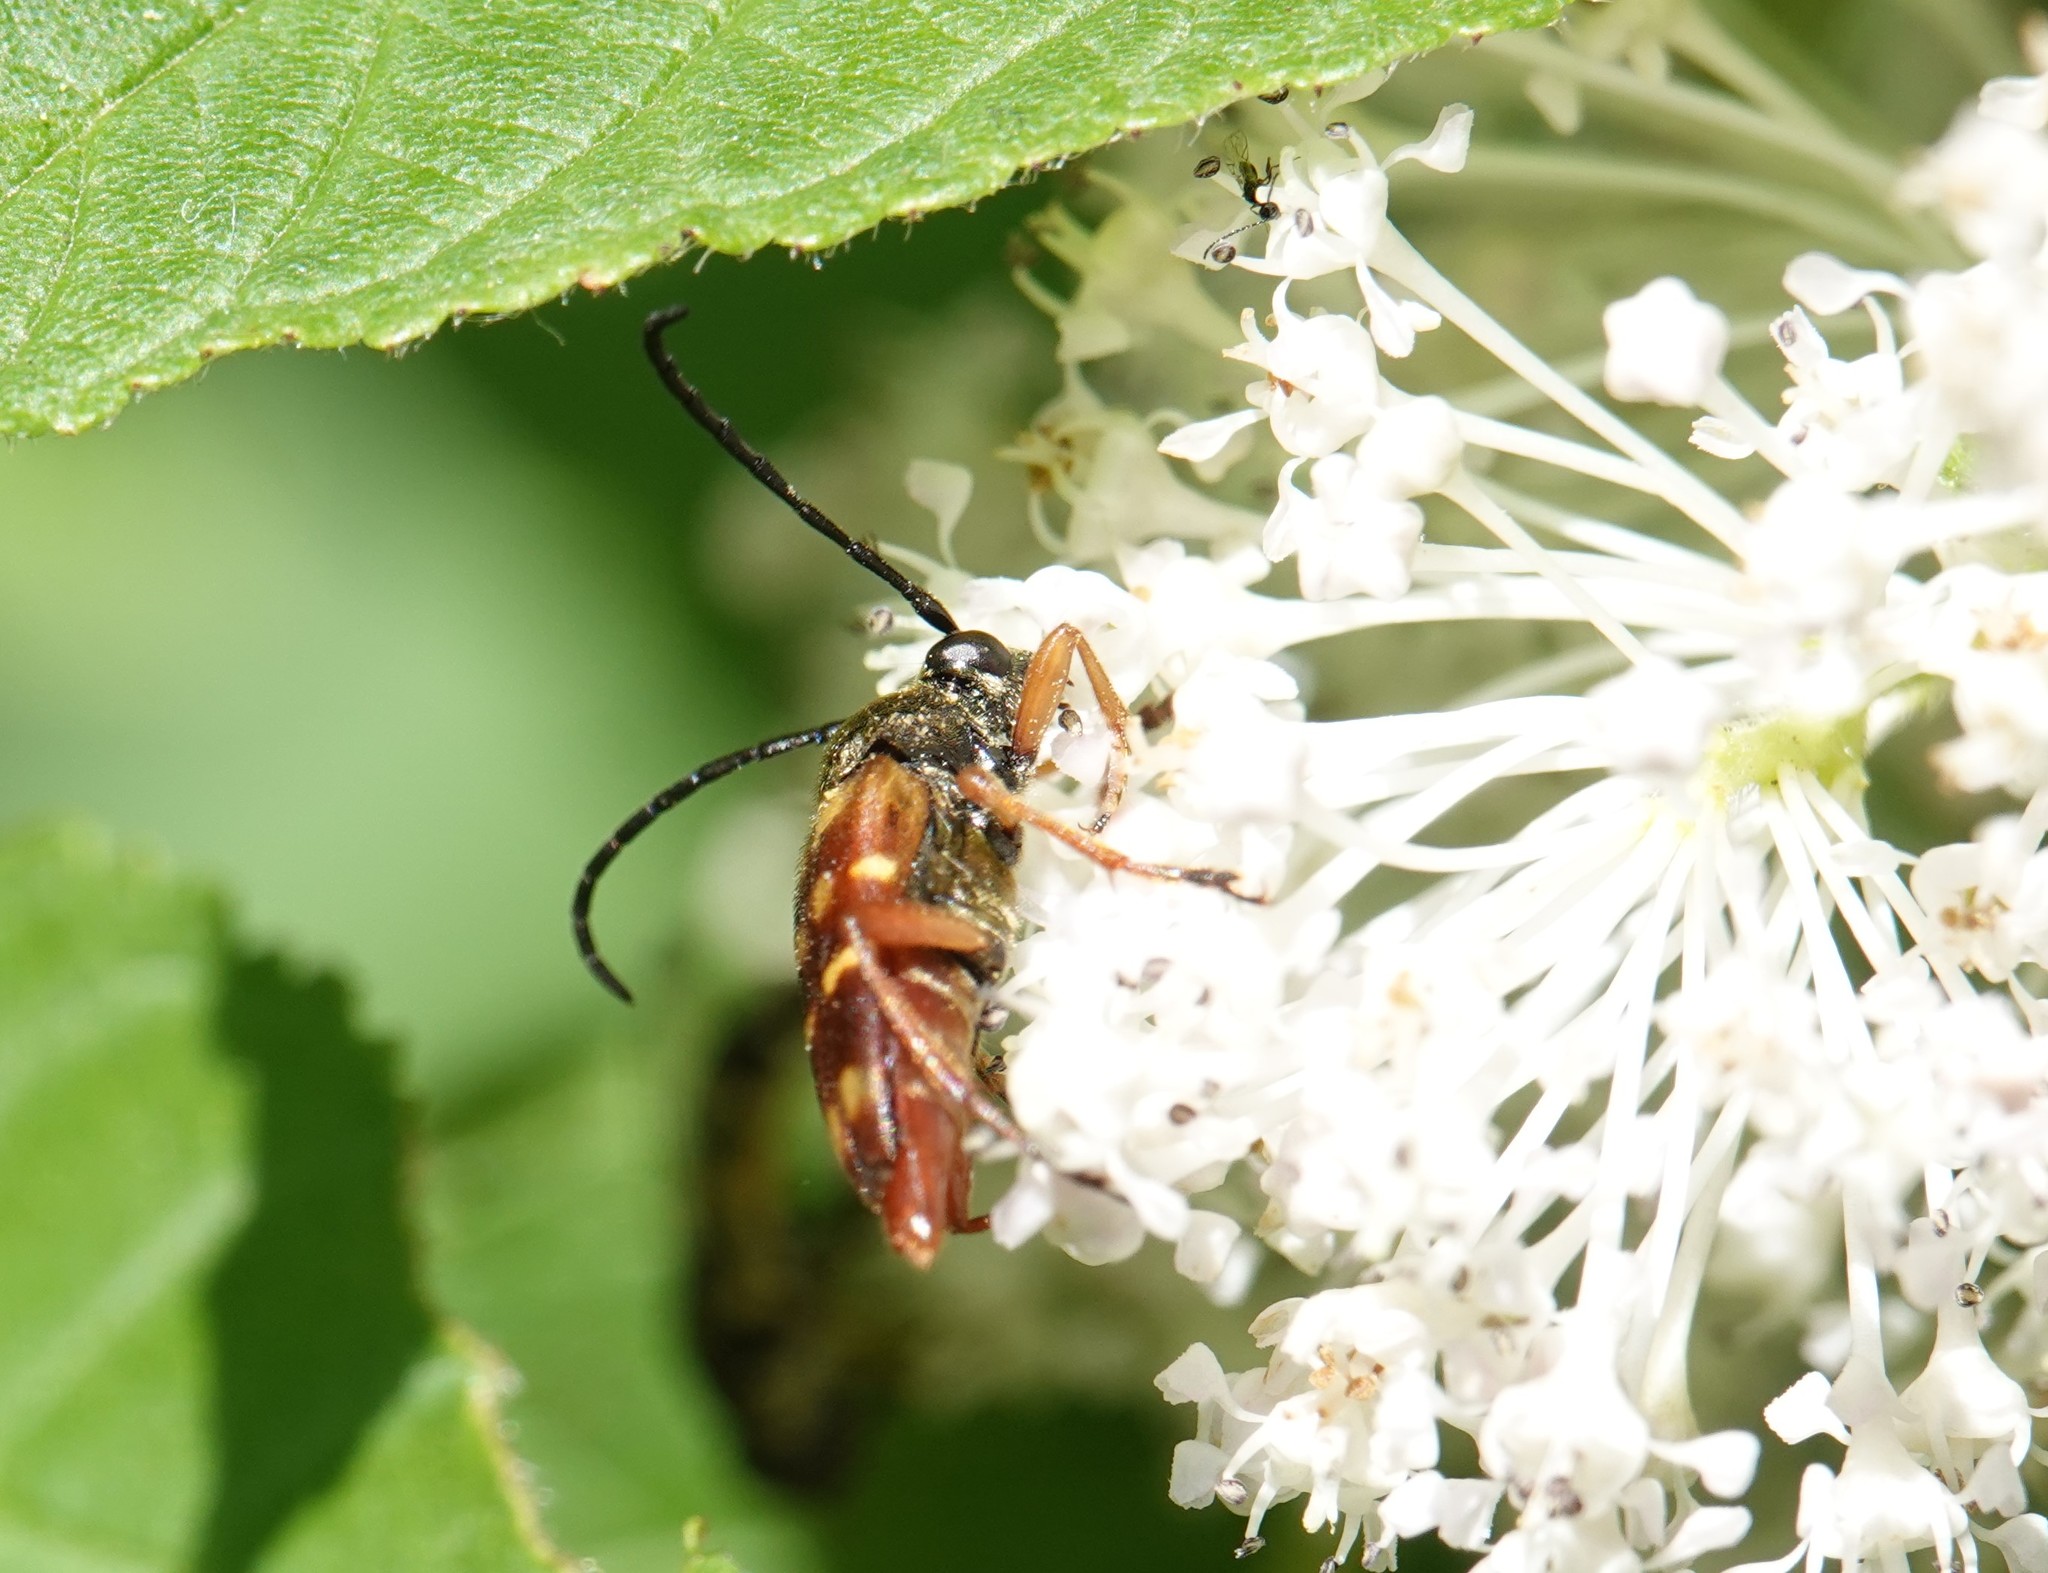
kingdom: Animalia
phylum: Arthropoda
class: Insecta
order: Coleoptera
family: Cerambycidae
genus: Typocerus
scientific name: Typocerus velutinus
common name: Banded longhorn beetle
